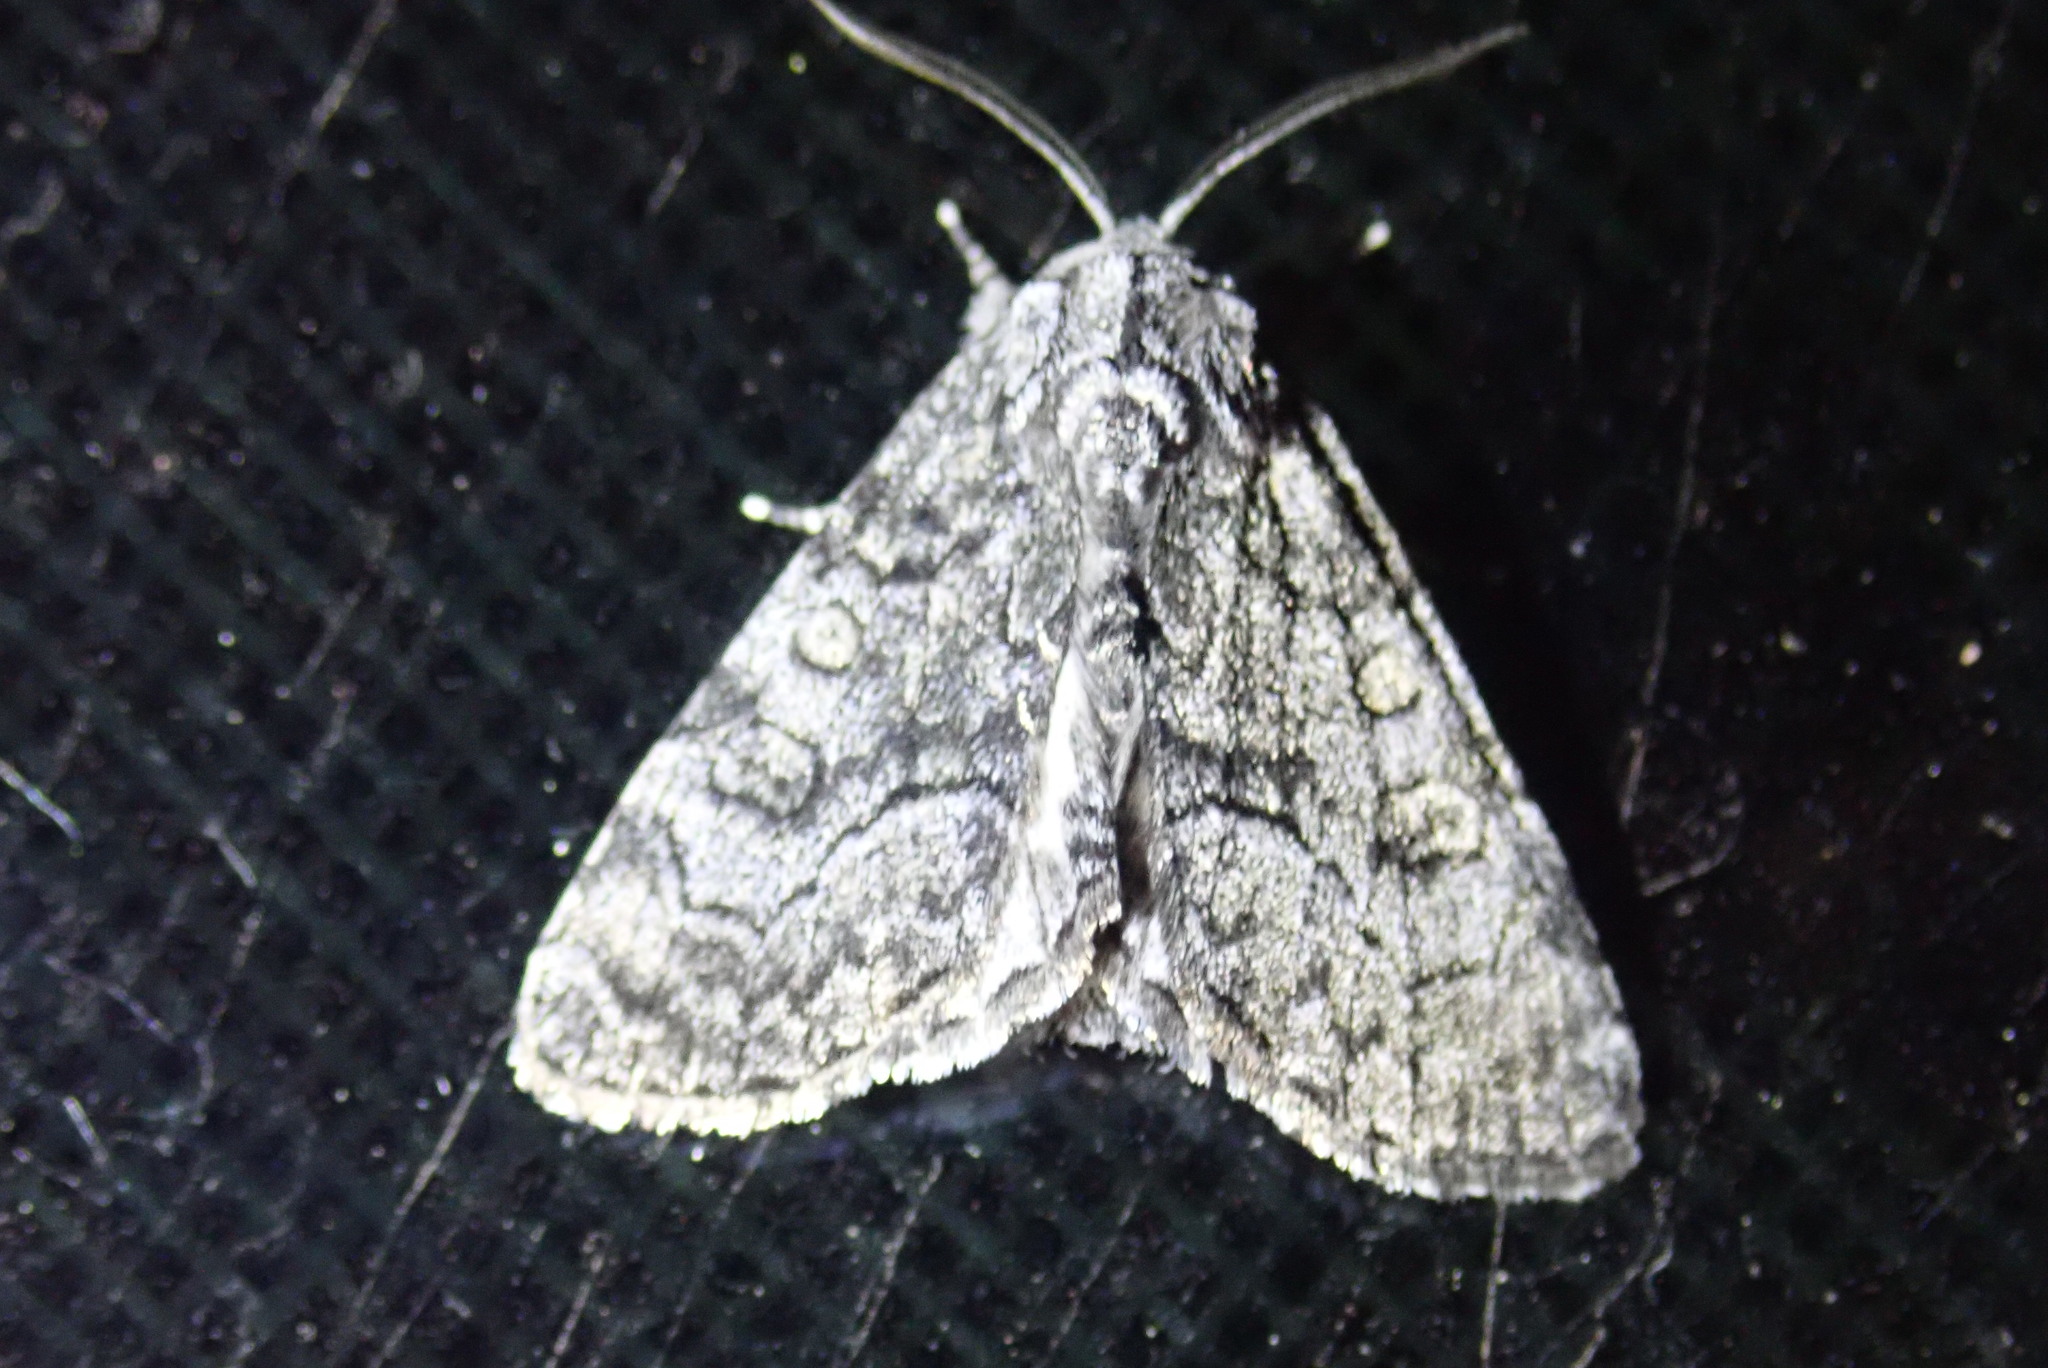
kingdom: Animalia
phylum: Arthropoda
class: Insecta
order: Lepidoptera
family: Noctuidae
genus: Raphia
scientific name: Raphia frater
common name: Brother
